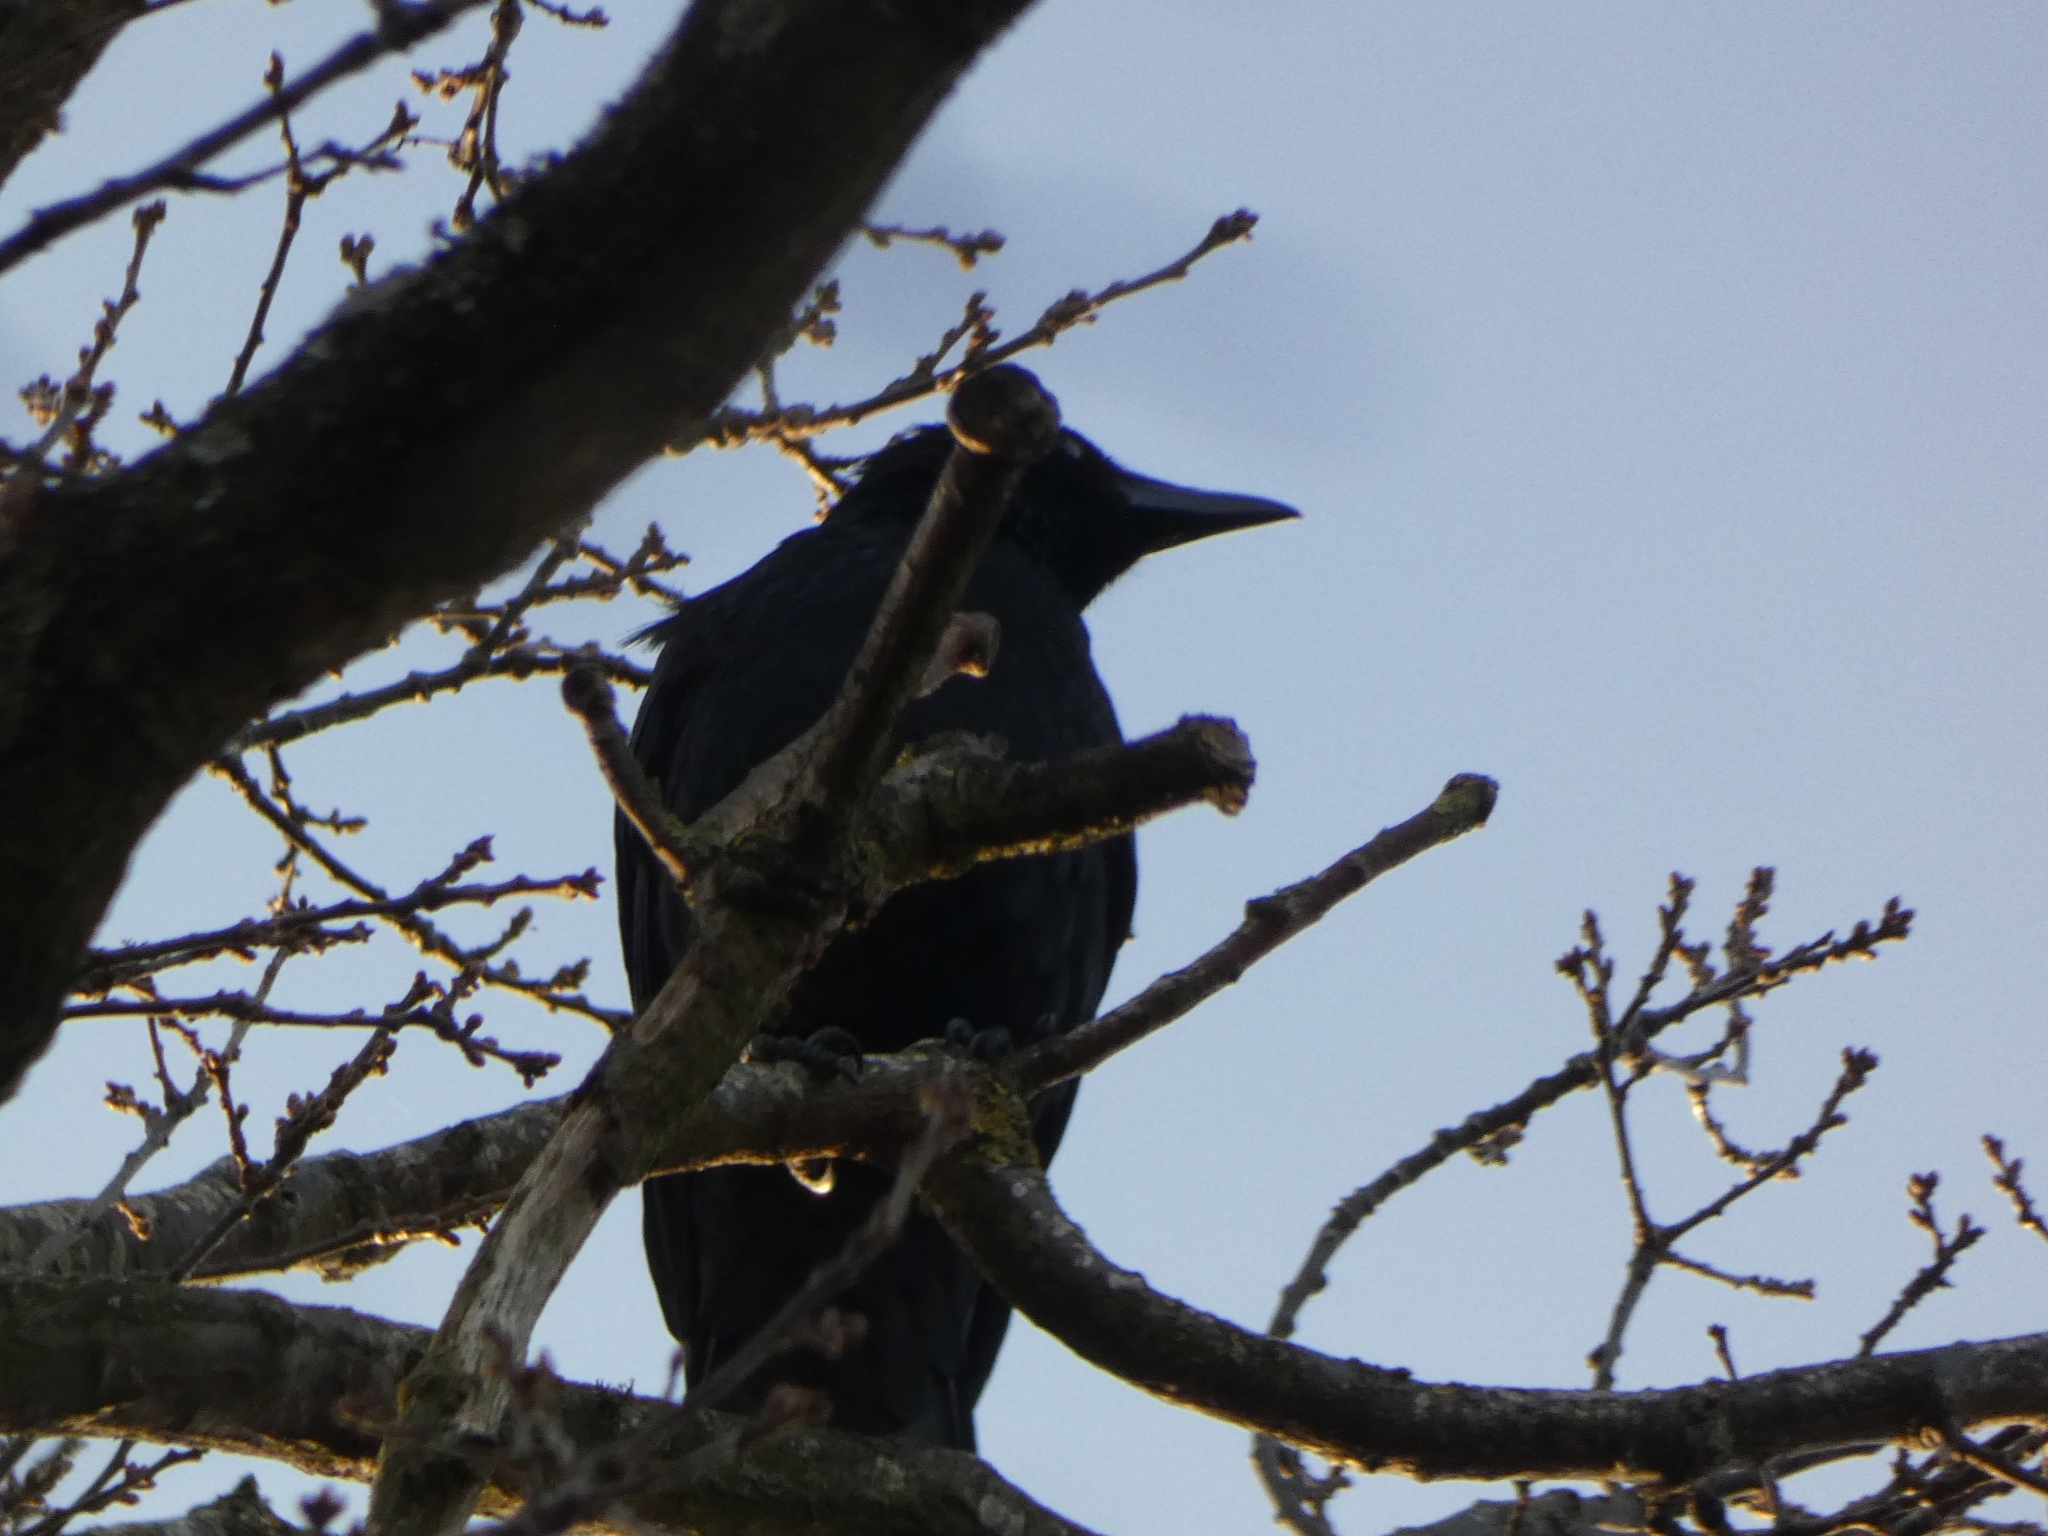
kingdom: Animalia
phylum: Chordata
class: Aves
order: Passeriformes
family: Corvidae
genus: Corvus
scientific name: Corvus corone
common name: Carrion crow
